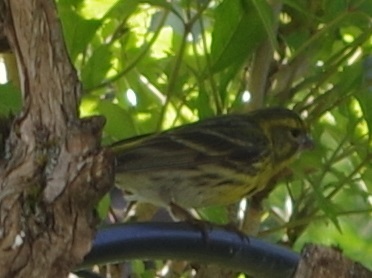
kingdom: Animalia
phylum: Chordata
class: Aves
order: Passeriformes
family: Fringillidae
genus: Serinus
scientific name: Serinus serinus
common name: European serin
